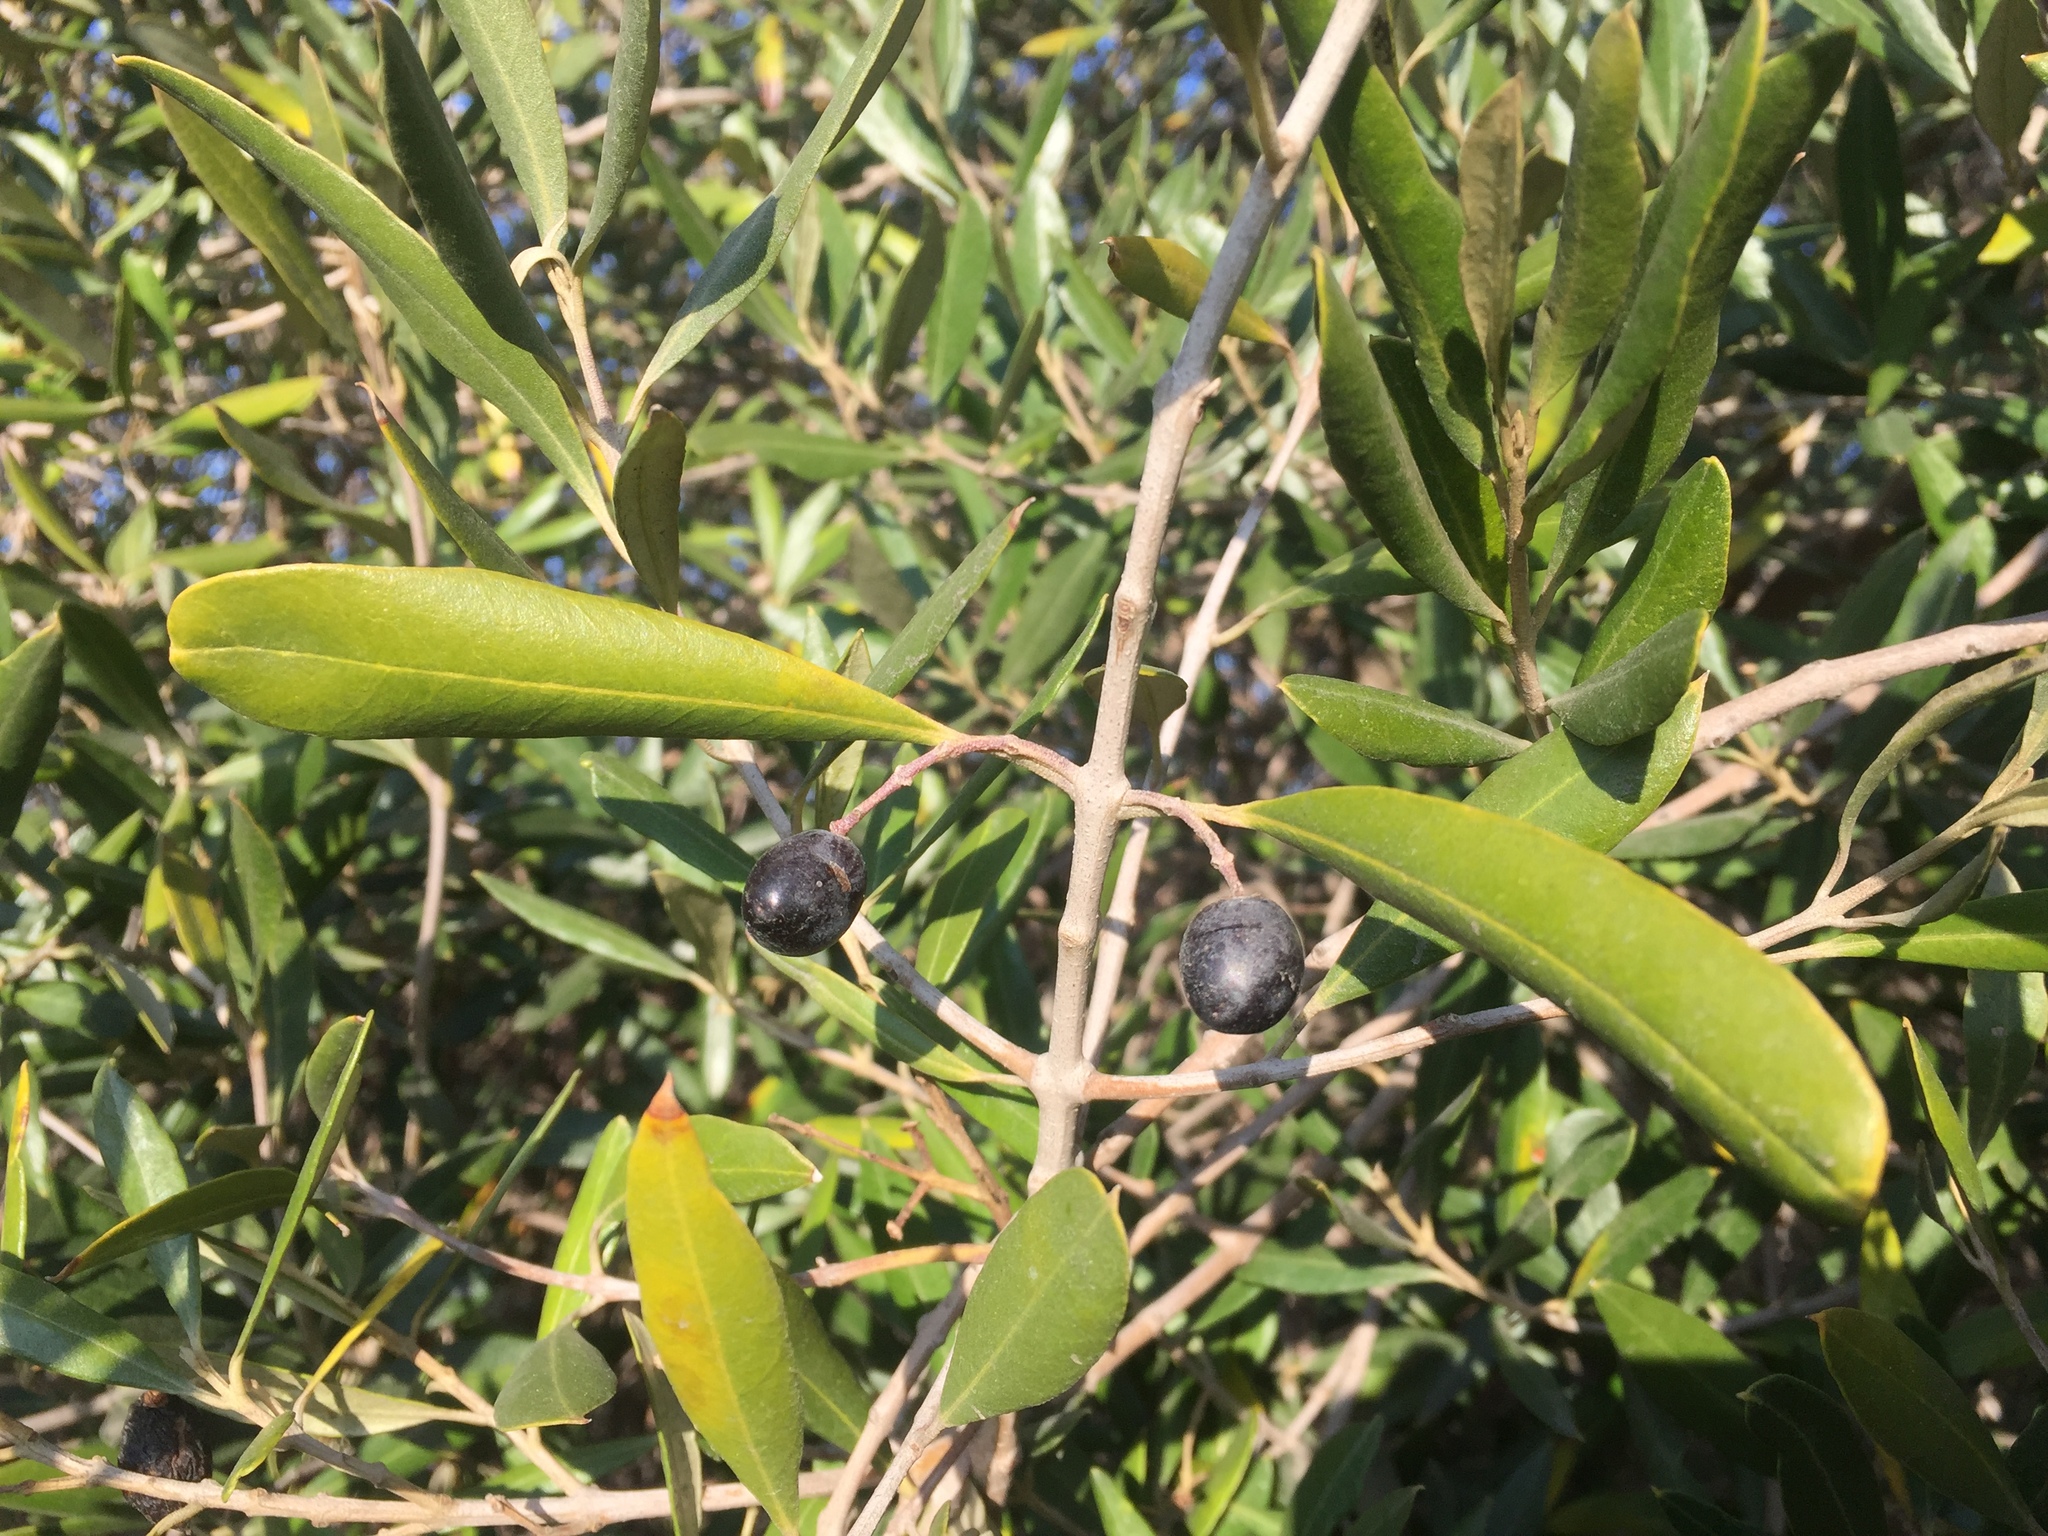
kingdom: Plantae
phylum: Tracheophyta
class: Magnoliopsida
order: Lamiales
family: Oleaceae
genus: Olea
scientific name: Olea europaea
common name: Olive
